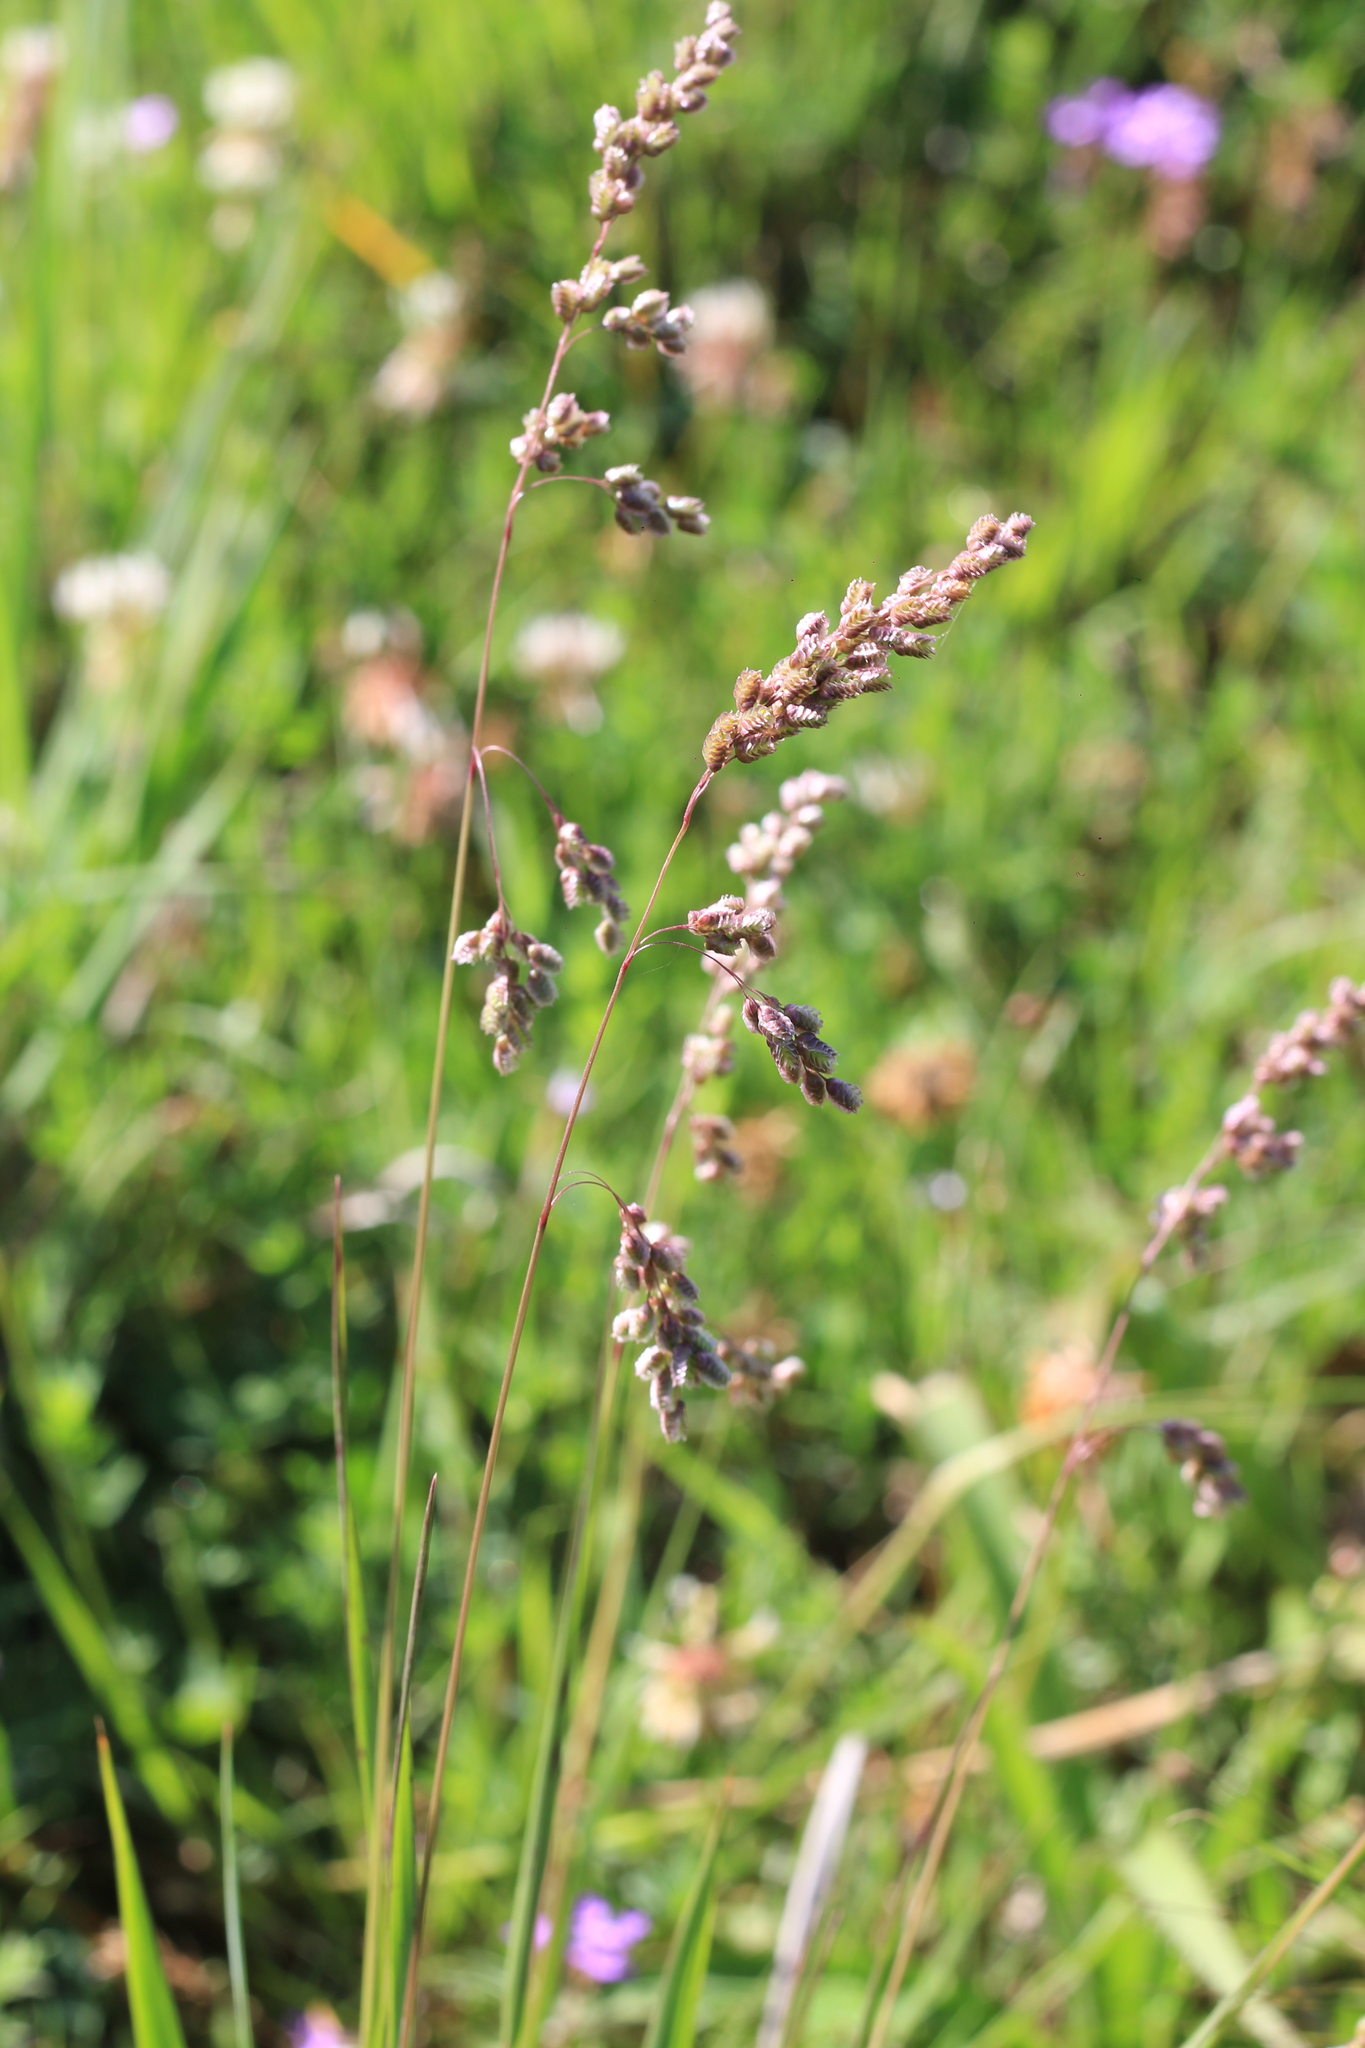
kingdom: Plantae
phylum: Tracheophyta
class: Liliopsida
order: Poales
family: Poaceae
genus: Chascolytrum
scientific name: Chascolytrum subaristatum
